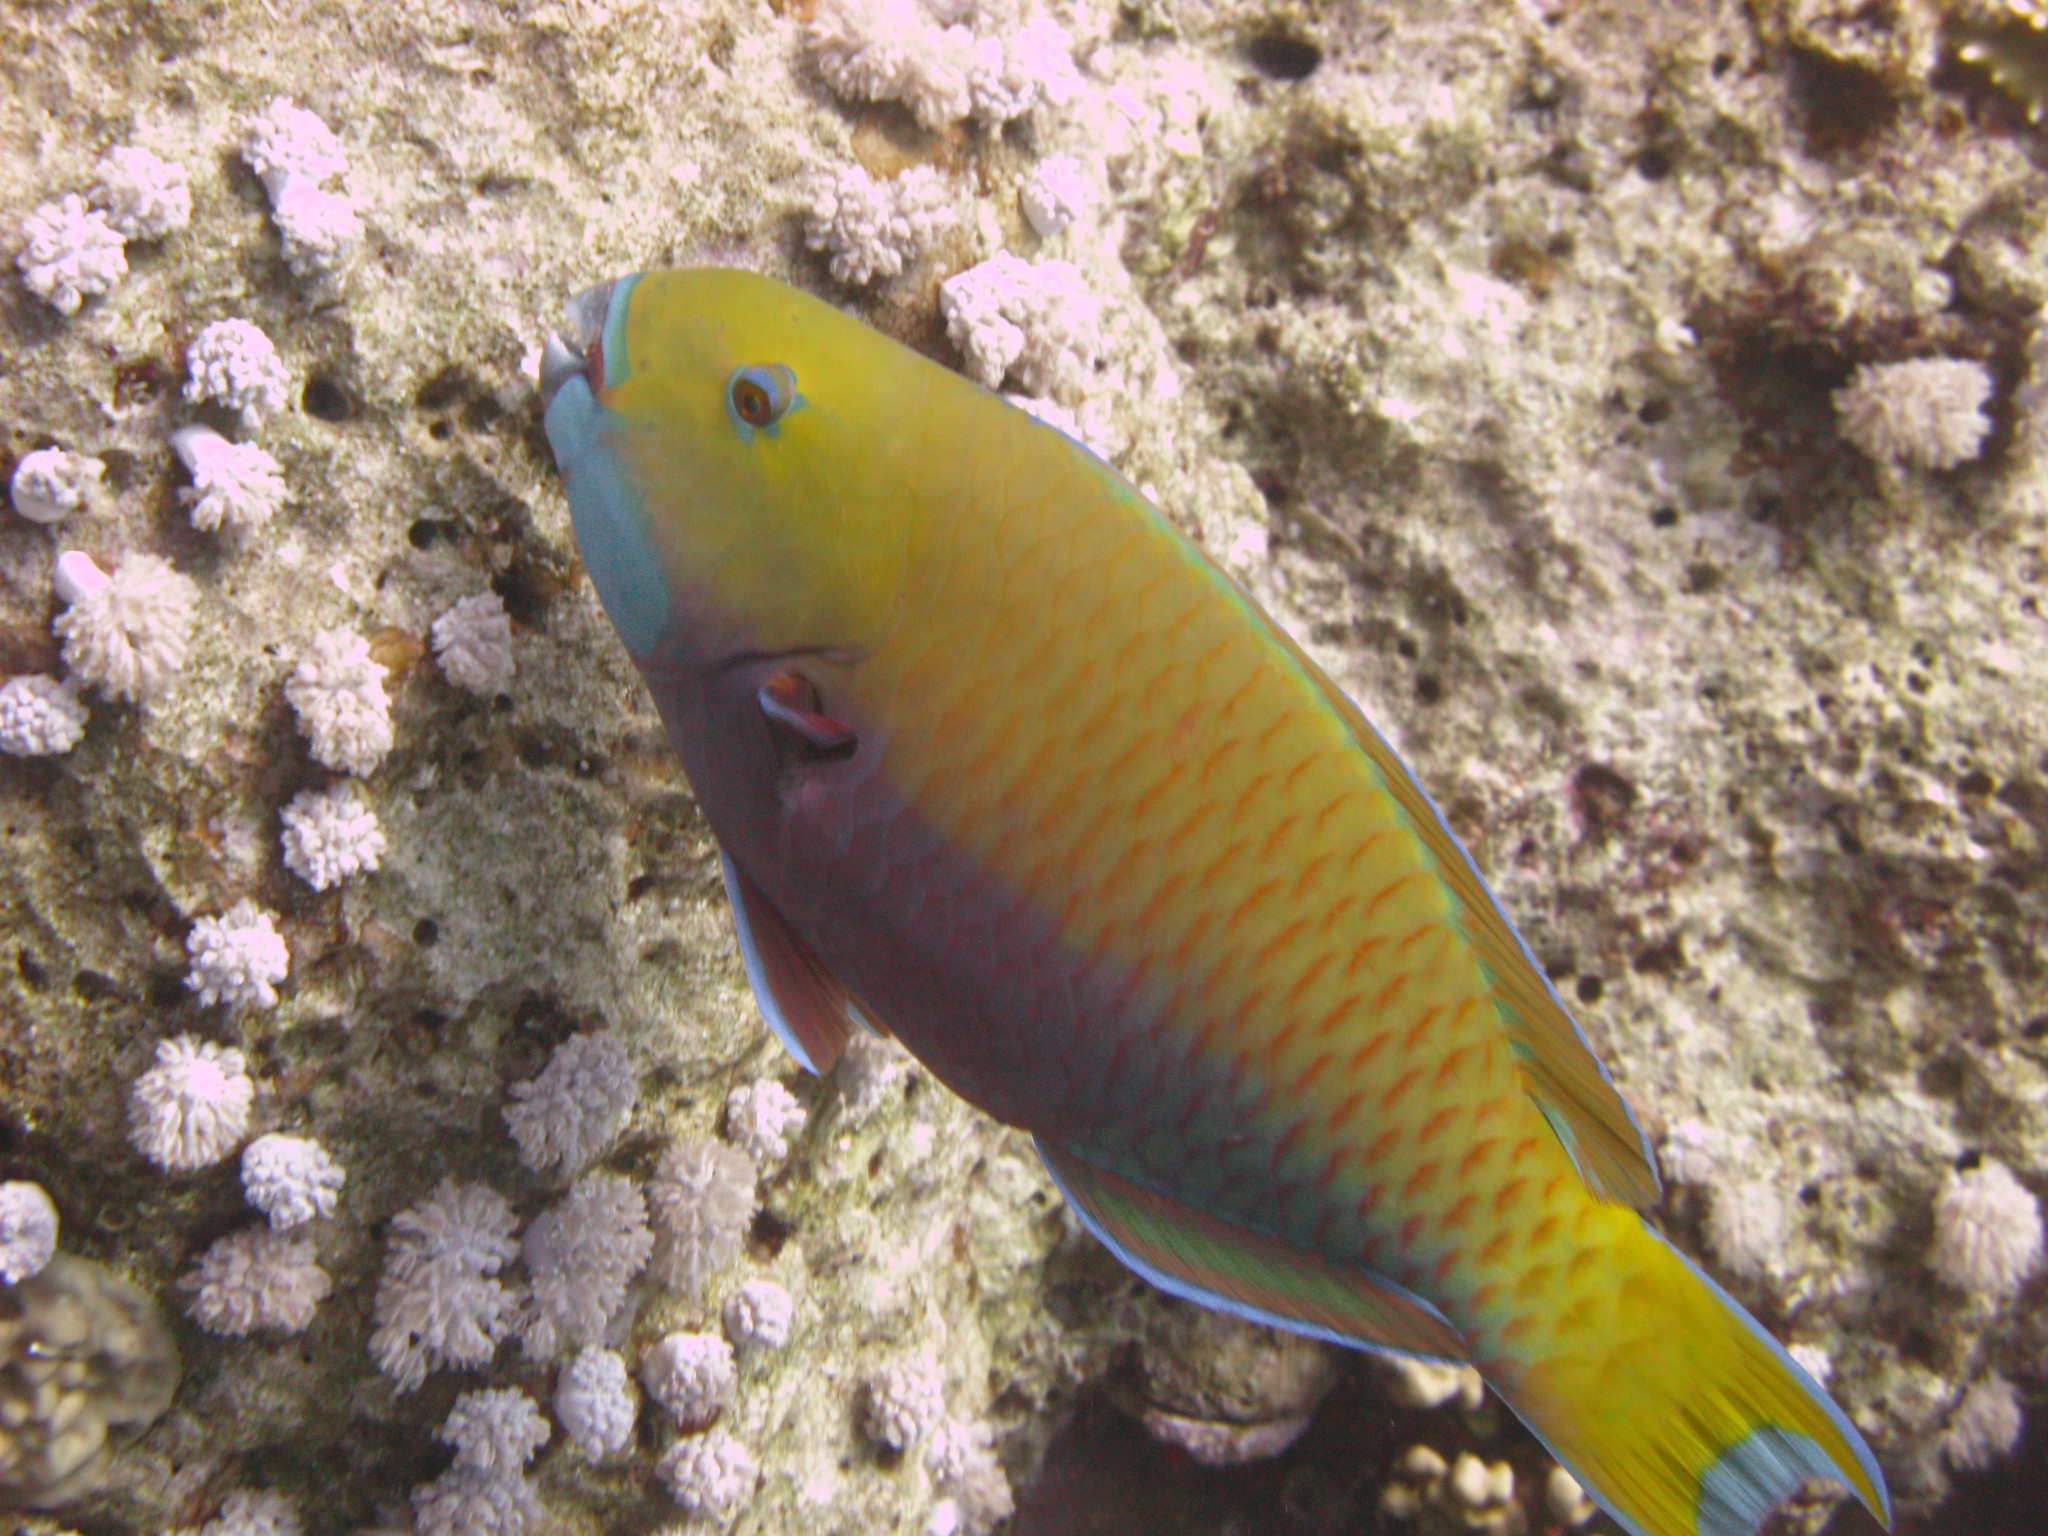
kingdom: Animalia
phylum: Chordata
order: Perciformes
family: Scaridae
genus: Chlorurus
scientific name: Chlorurus gibbus
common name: Heavybeak parrotfish
